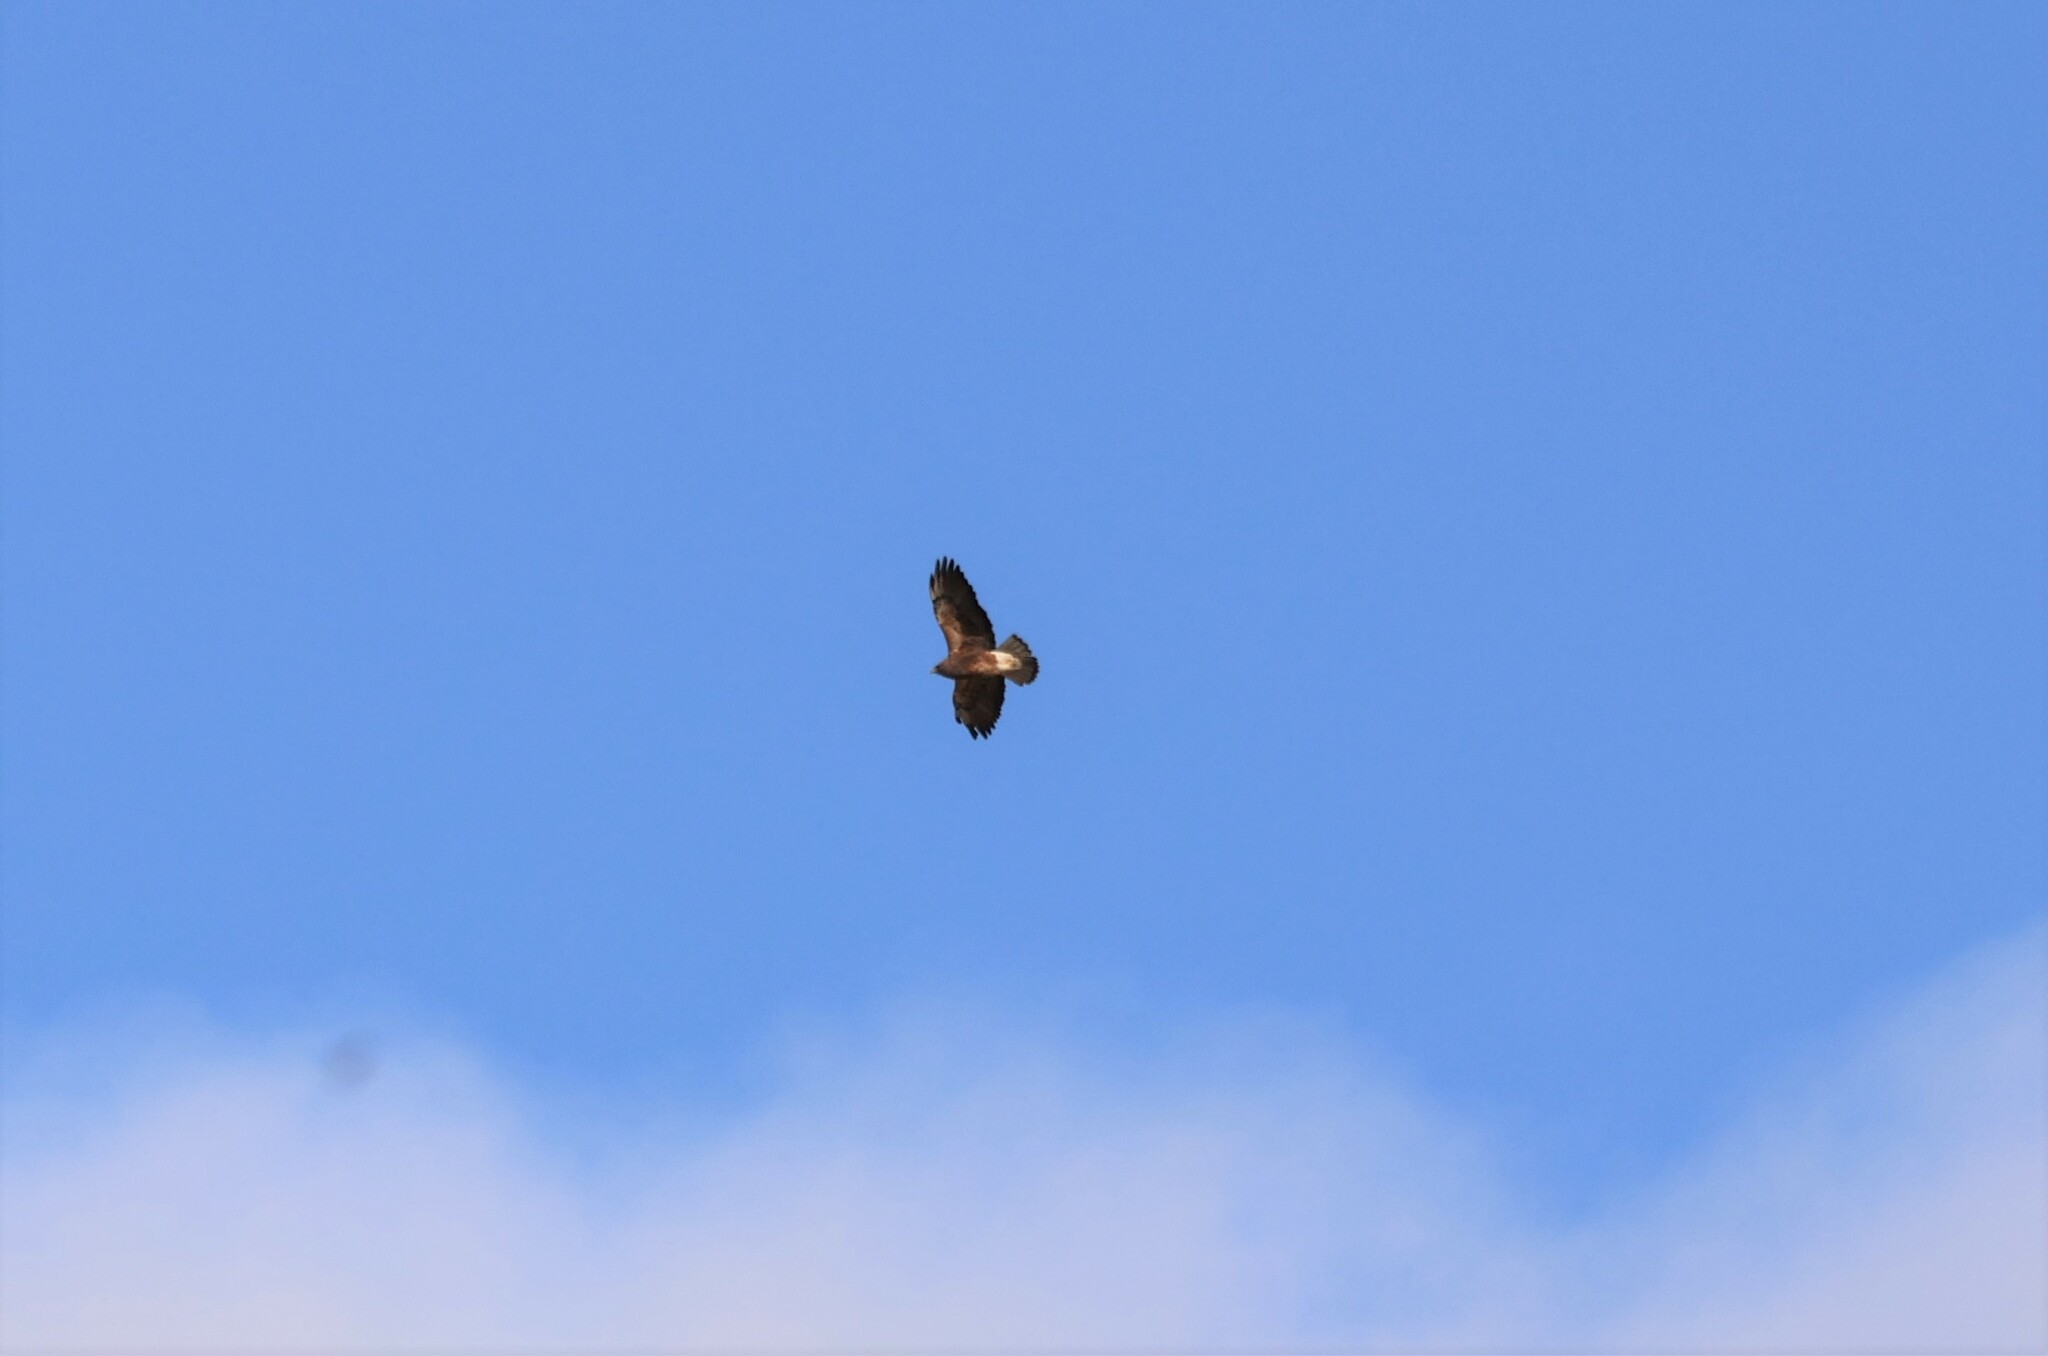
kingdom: Animalia
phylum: Chordata
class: Aves
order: Accipitriformes
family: Accipitridae
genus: Buteo
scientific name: Buteo swainsoni
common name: Swainson's hawk
